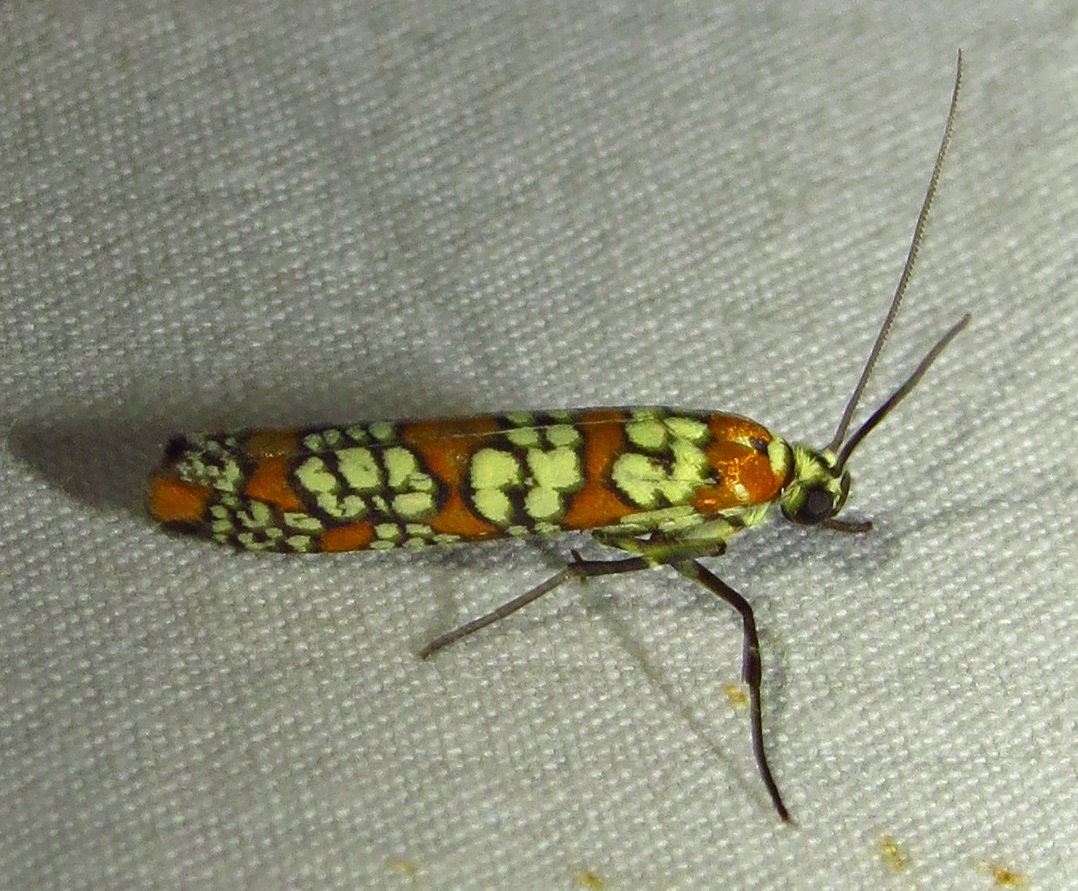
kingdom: Animalia
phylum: Arthropoda
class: Insecta
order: Lepidoptera
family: Attevidae
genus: Atteva
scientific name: Atteva punctella
